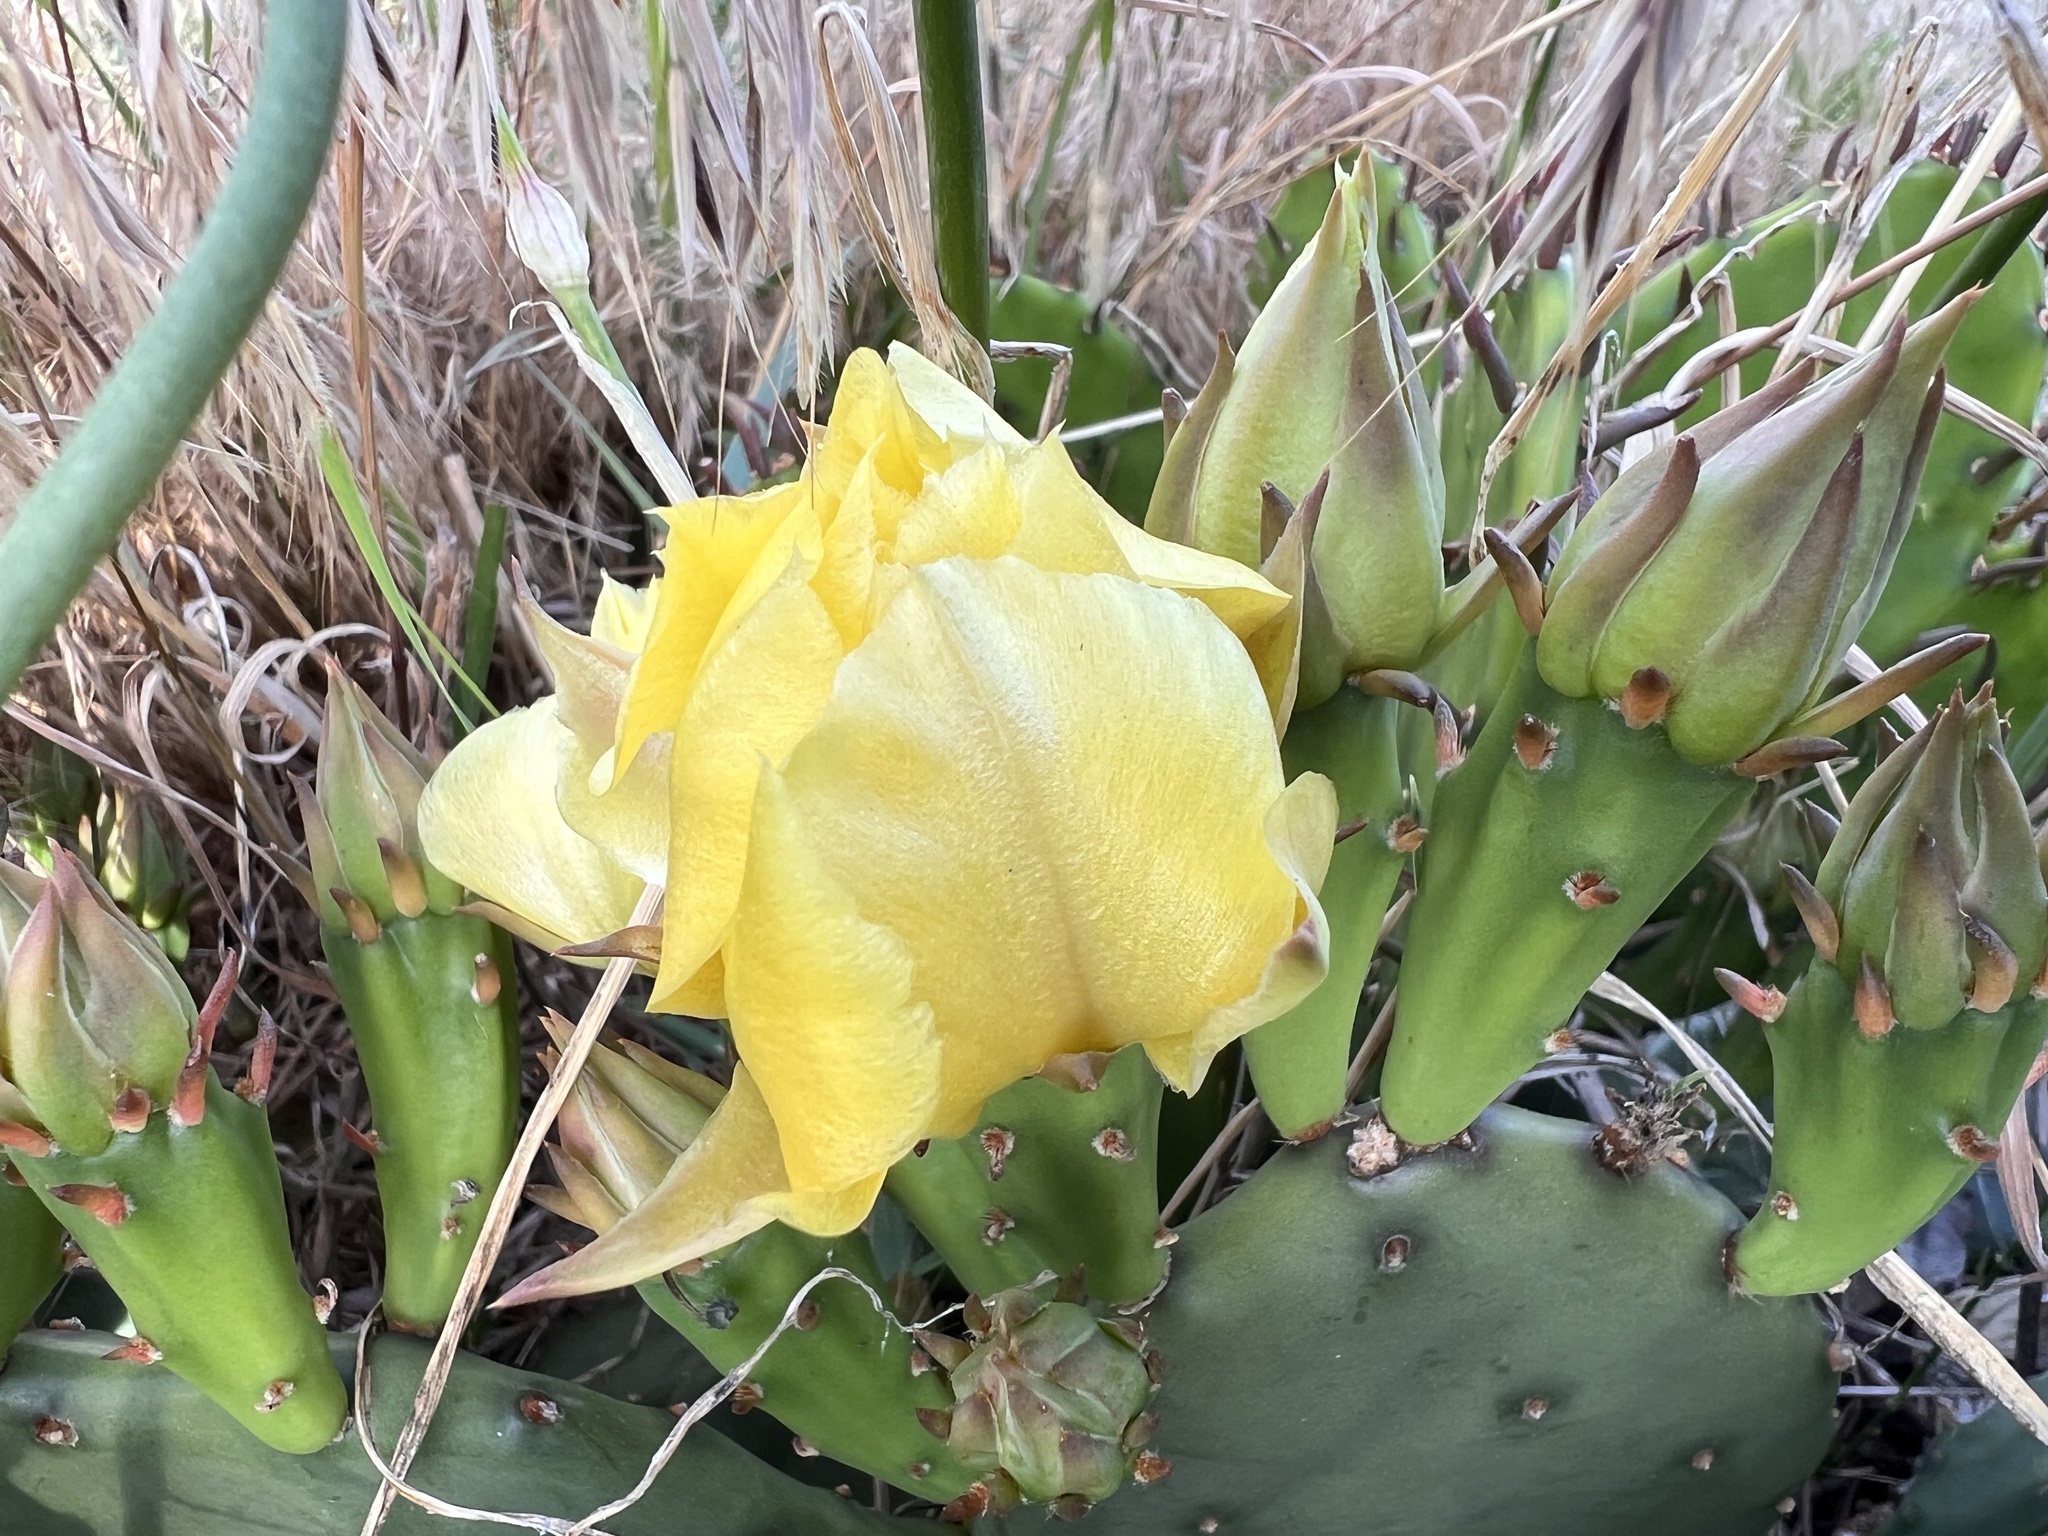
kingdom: Plantae
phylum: Tracheophyta
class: Magnoliopsida
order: Caryophyllales
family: Cactaceae
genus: Opuntia
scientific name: Opuntia humifusa
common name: Eastern prickly-pear
